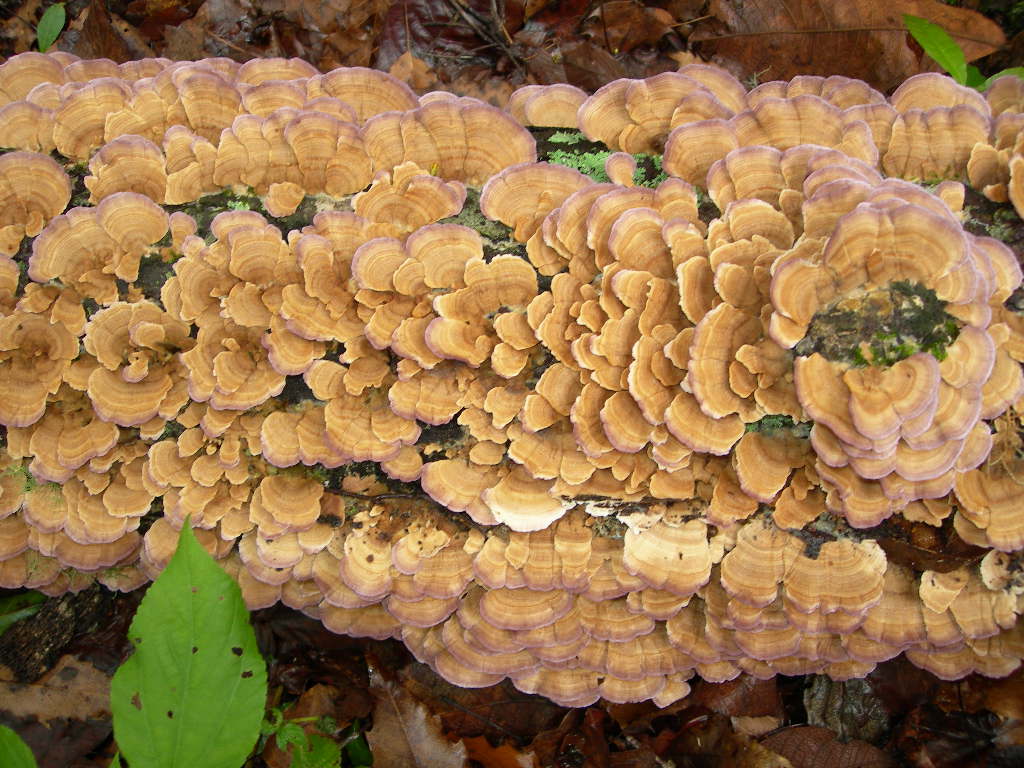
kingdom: Fungi
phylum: Basidiomycota
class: Agaricomycetes
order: Hymenochaetales
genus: Trichaptum
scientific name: Trichaptum biforme
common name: Violet-toothed polypore
